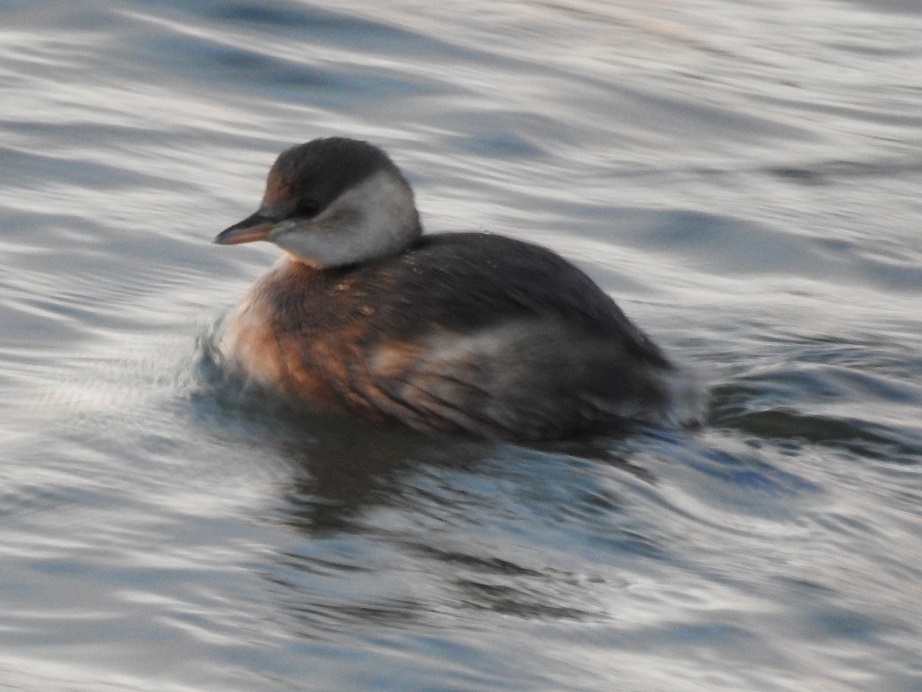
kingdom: Animalia
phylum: Chordata
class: Aves
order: Podicipediformes
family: Podicipedidae
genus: Tachybaptus
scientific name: Tachybaptus ruficollis
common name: Little grebe
